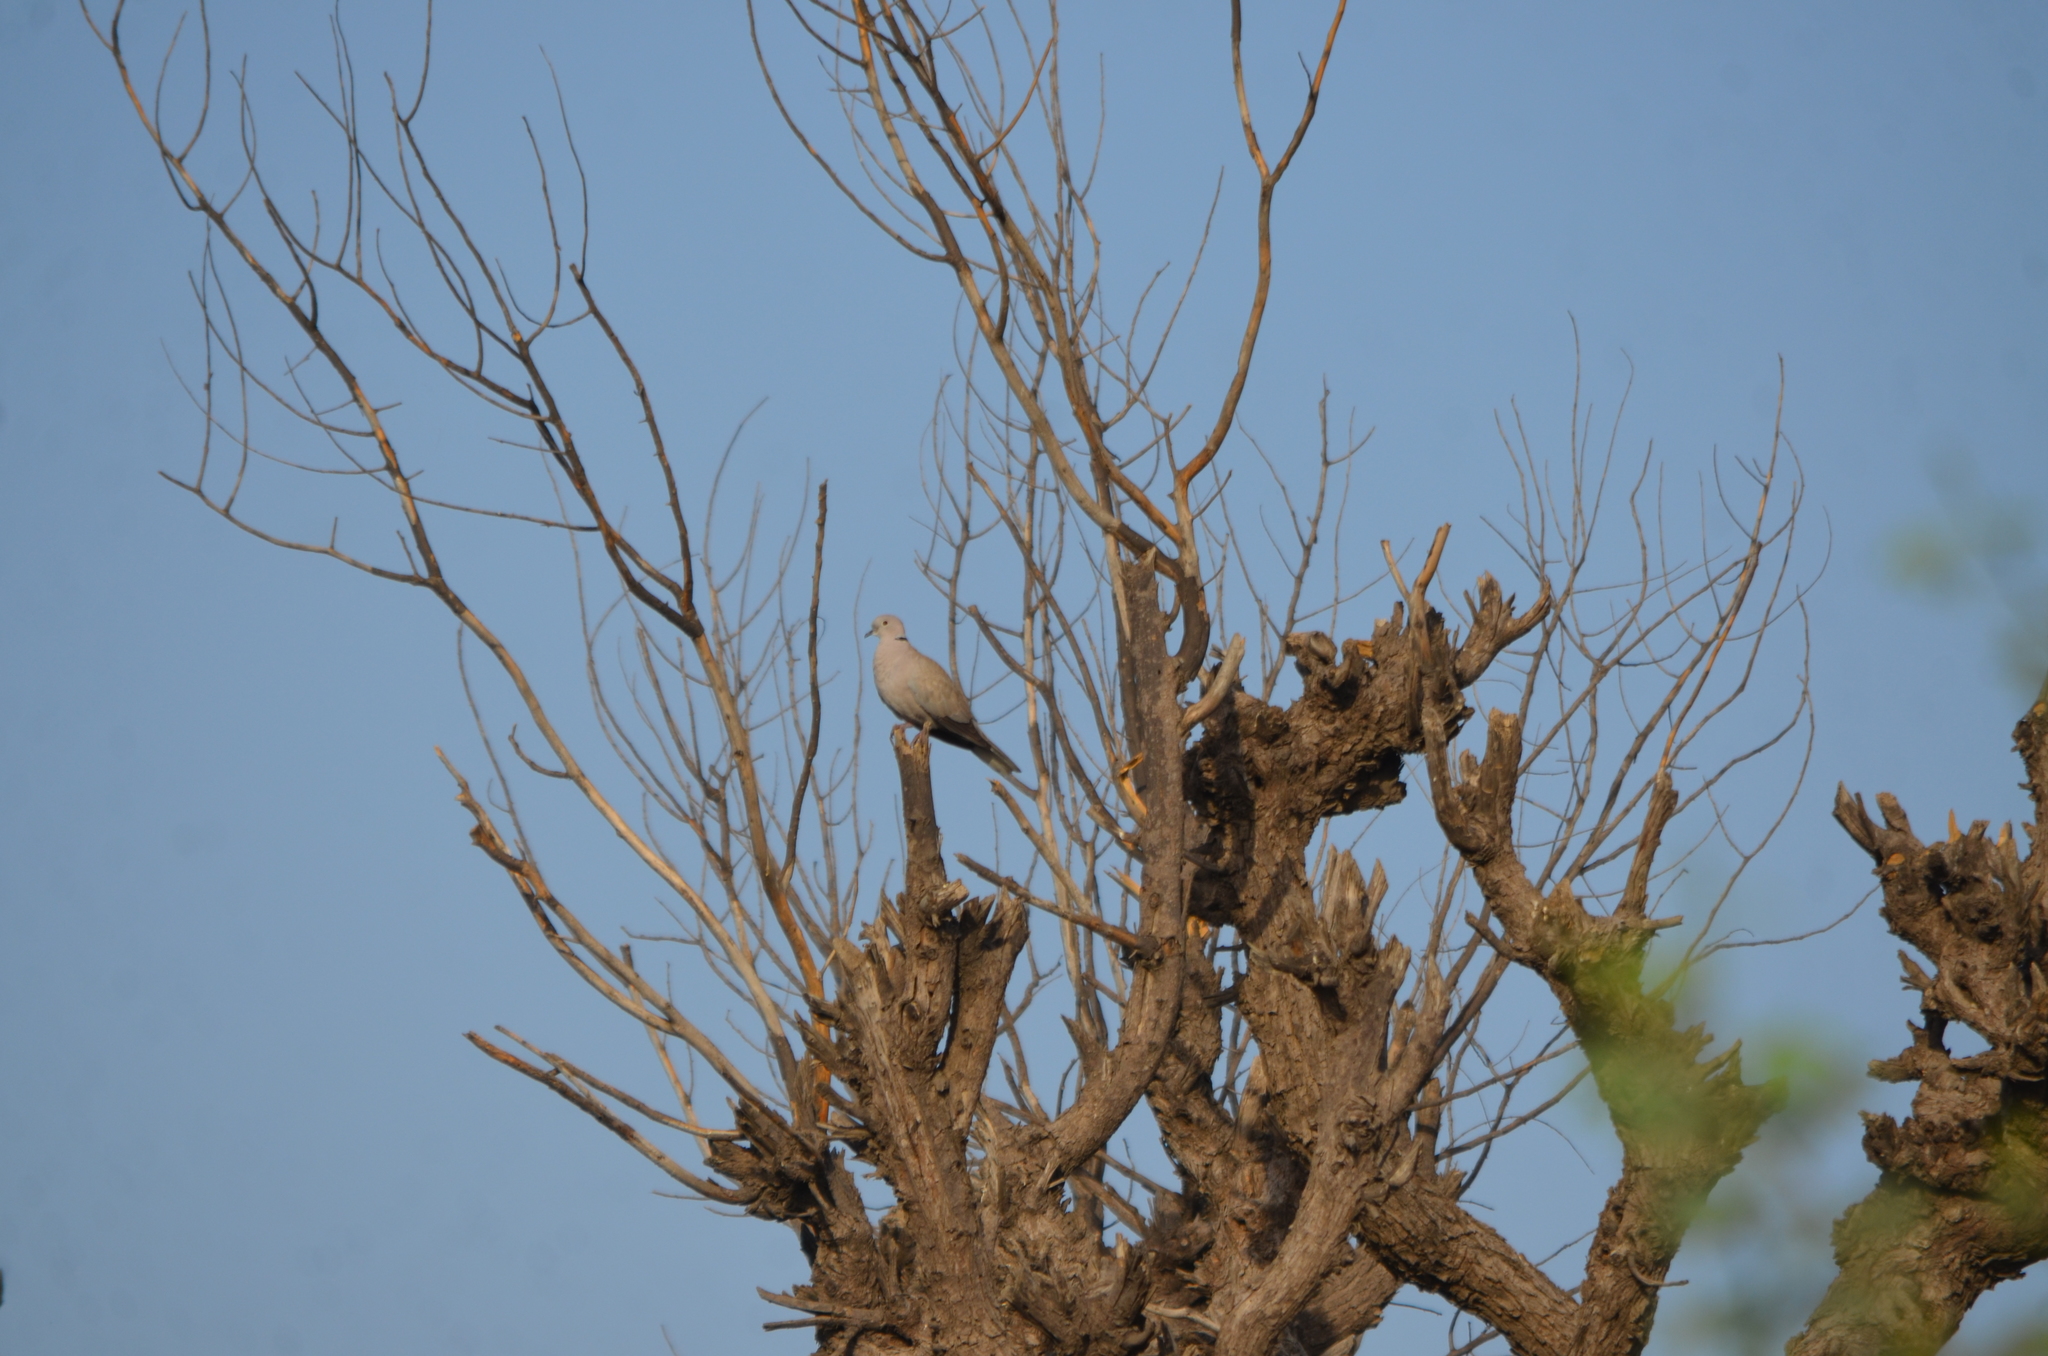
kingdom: Animalia
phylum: Chordata
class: Aves
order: Columbiformes
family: Columbidae
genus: Streptopelia
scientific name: Streptopelia decaocto
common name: Eurasian collared dove
